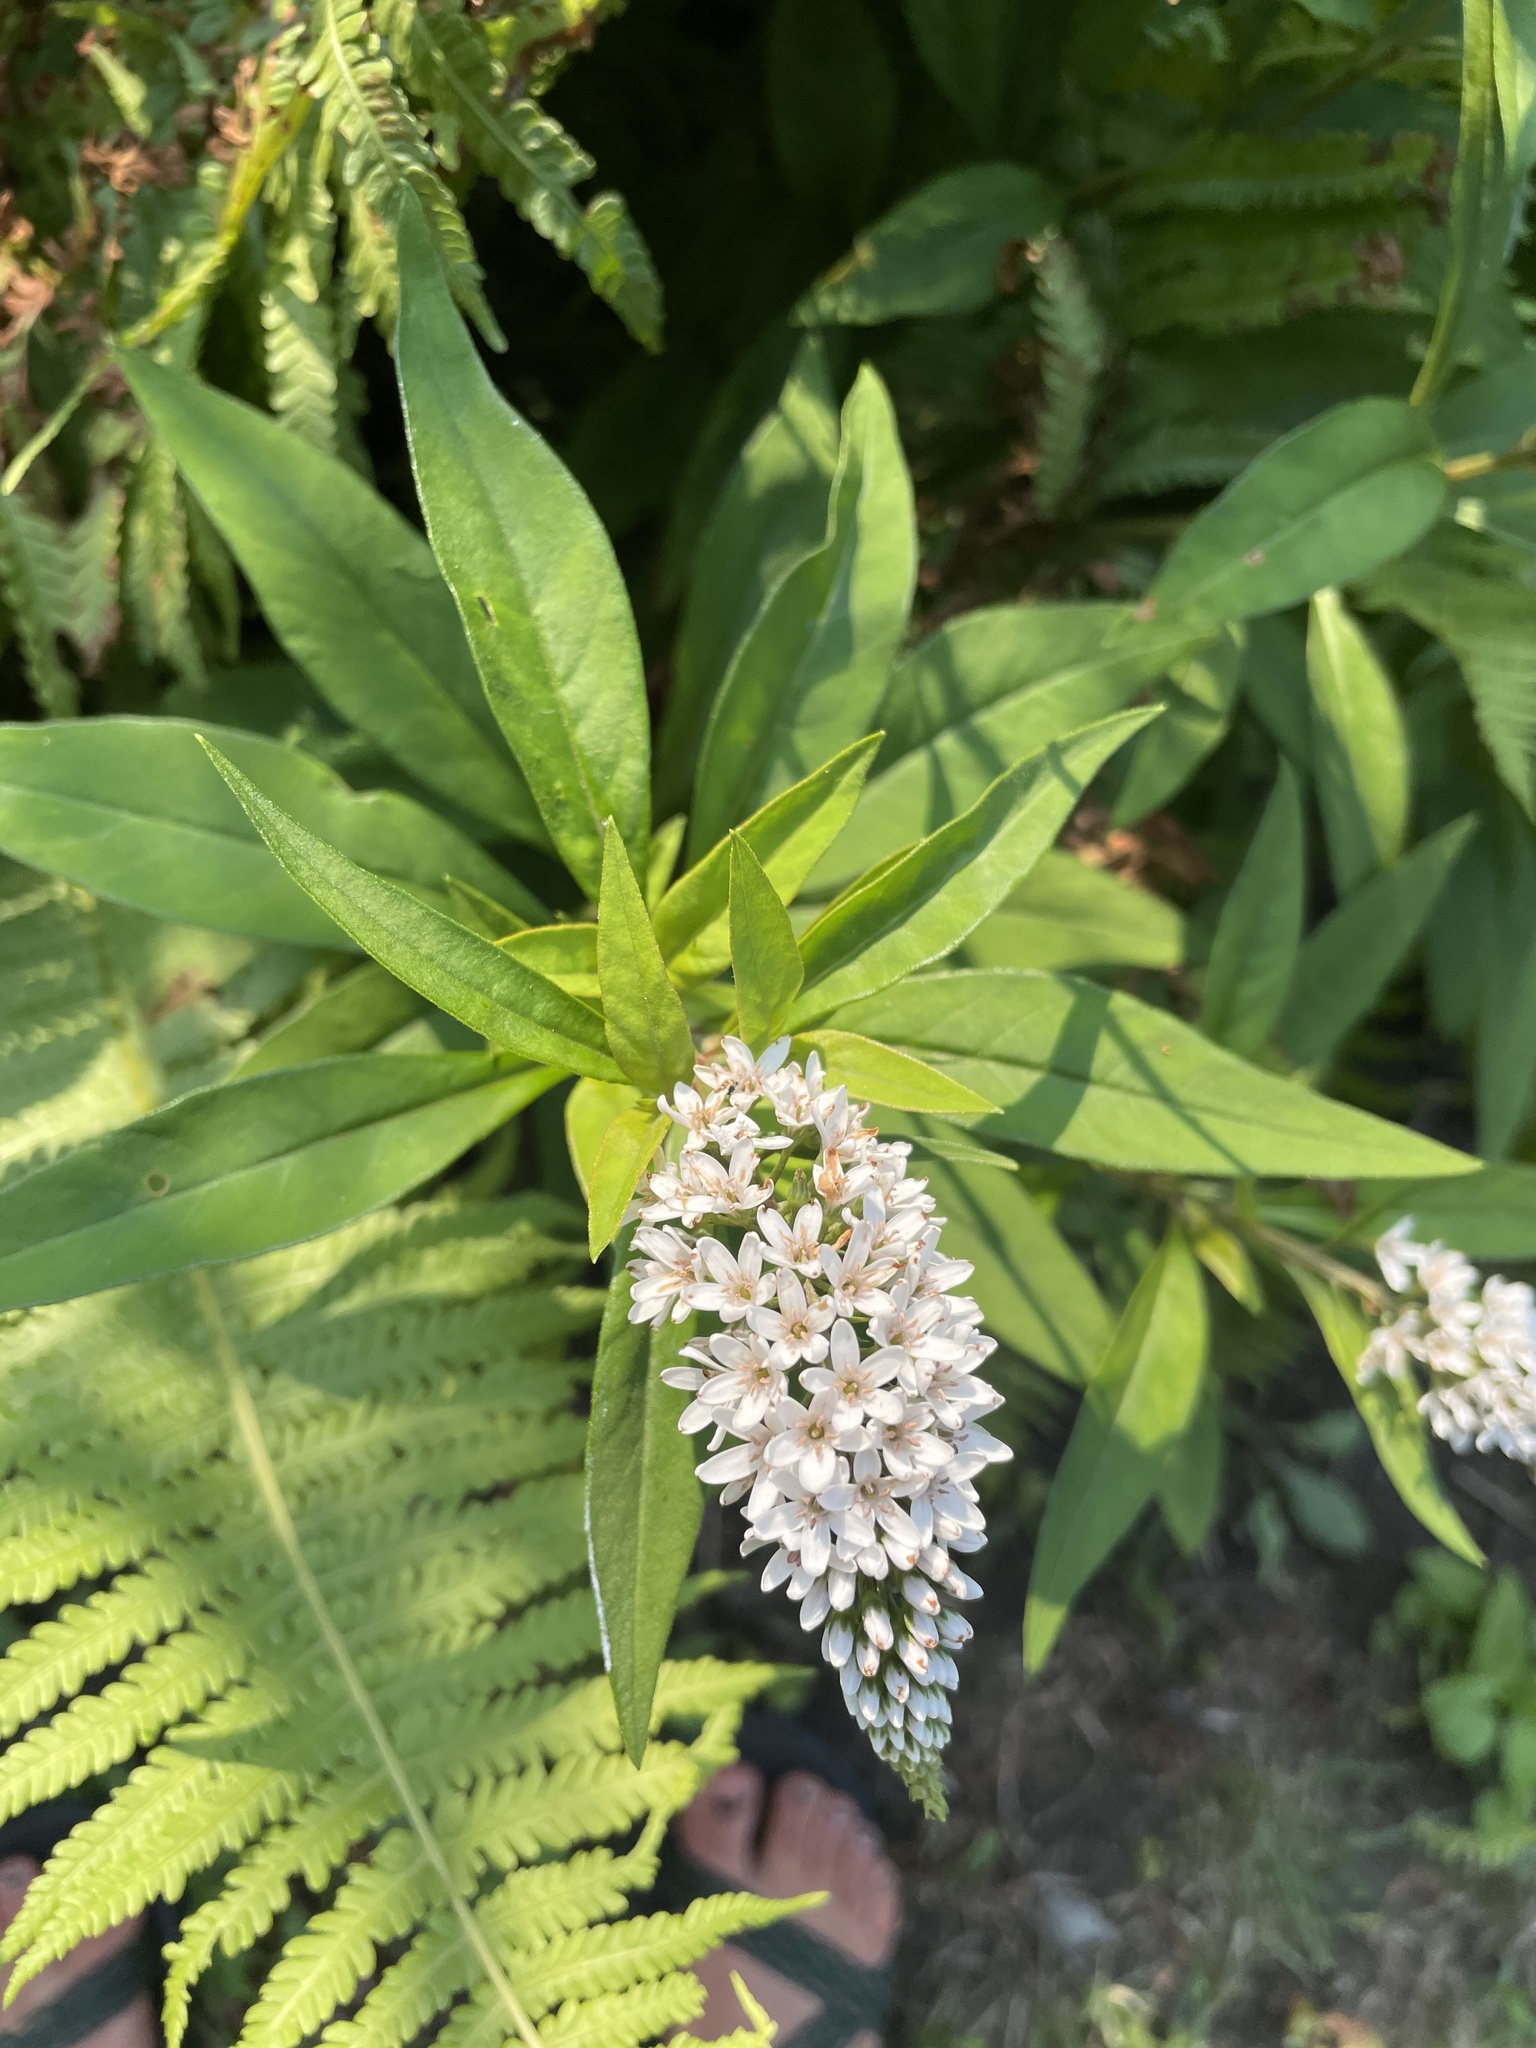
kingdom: Plantae
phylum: Tracheophyta
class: Magnoliopsida
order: Ericales
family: Primulaceae
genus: Lysimachia
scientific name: Lysimachia clethroides
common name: Gooseneck loosestrife
